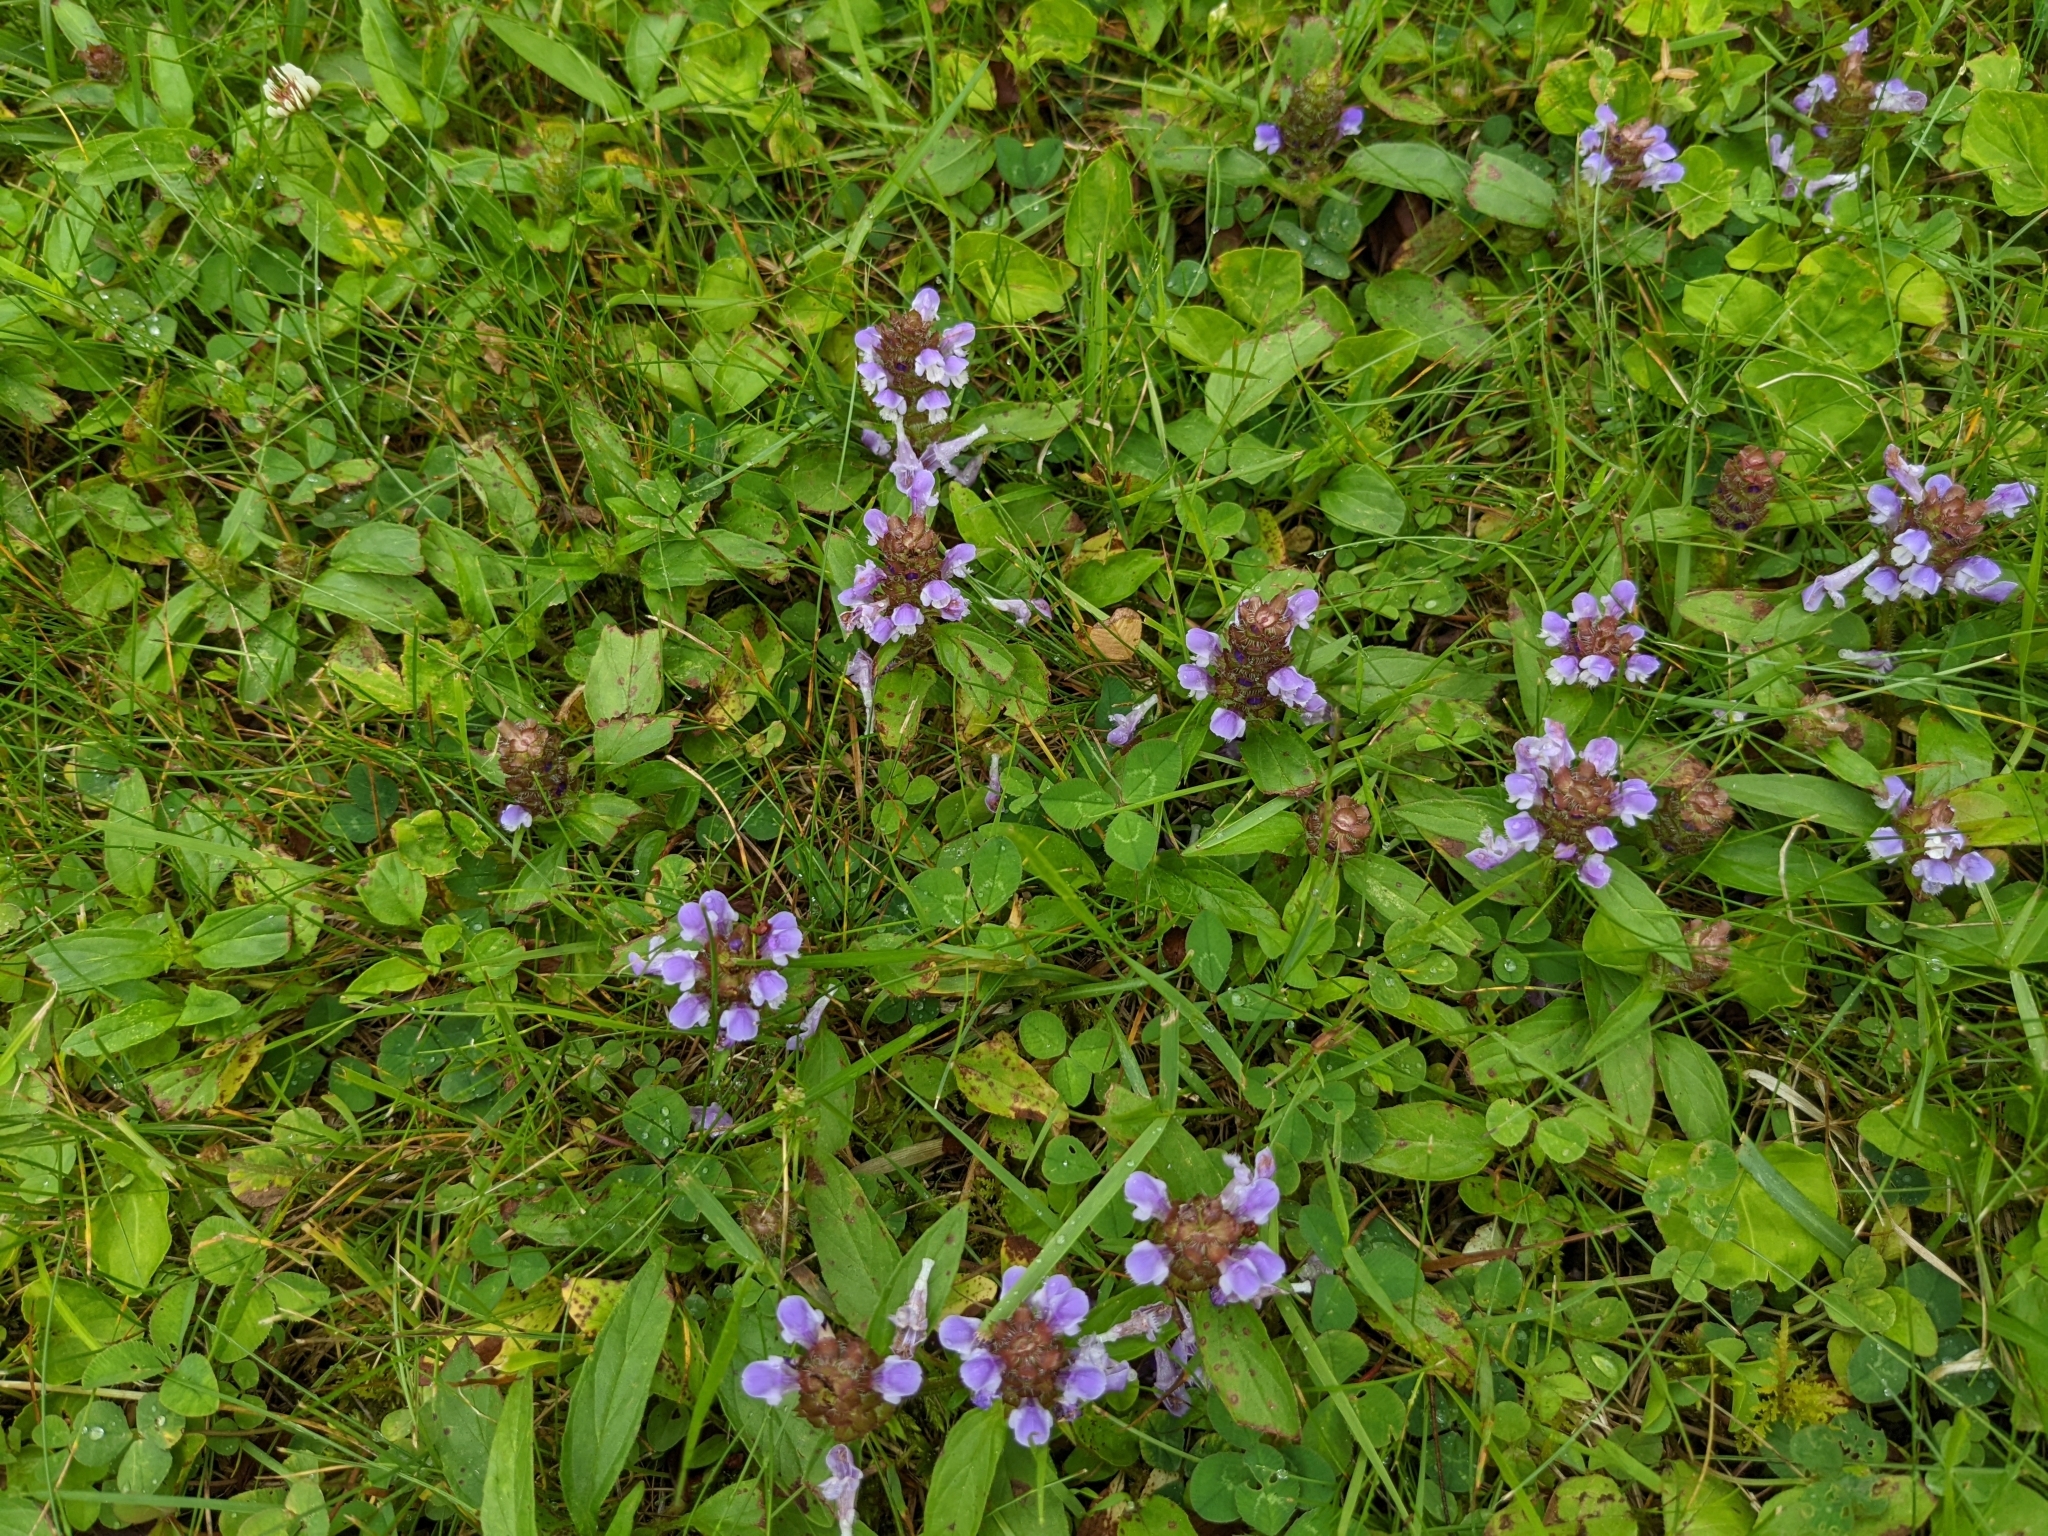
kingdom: Plantae
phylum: Tracheophyta
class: Magnoliopsida
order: Lamiales
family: Lamiaceae
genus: Prunella
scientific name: Prunella vulgaris
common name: Heal-all
